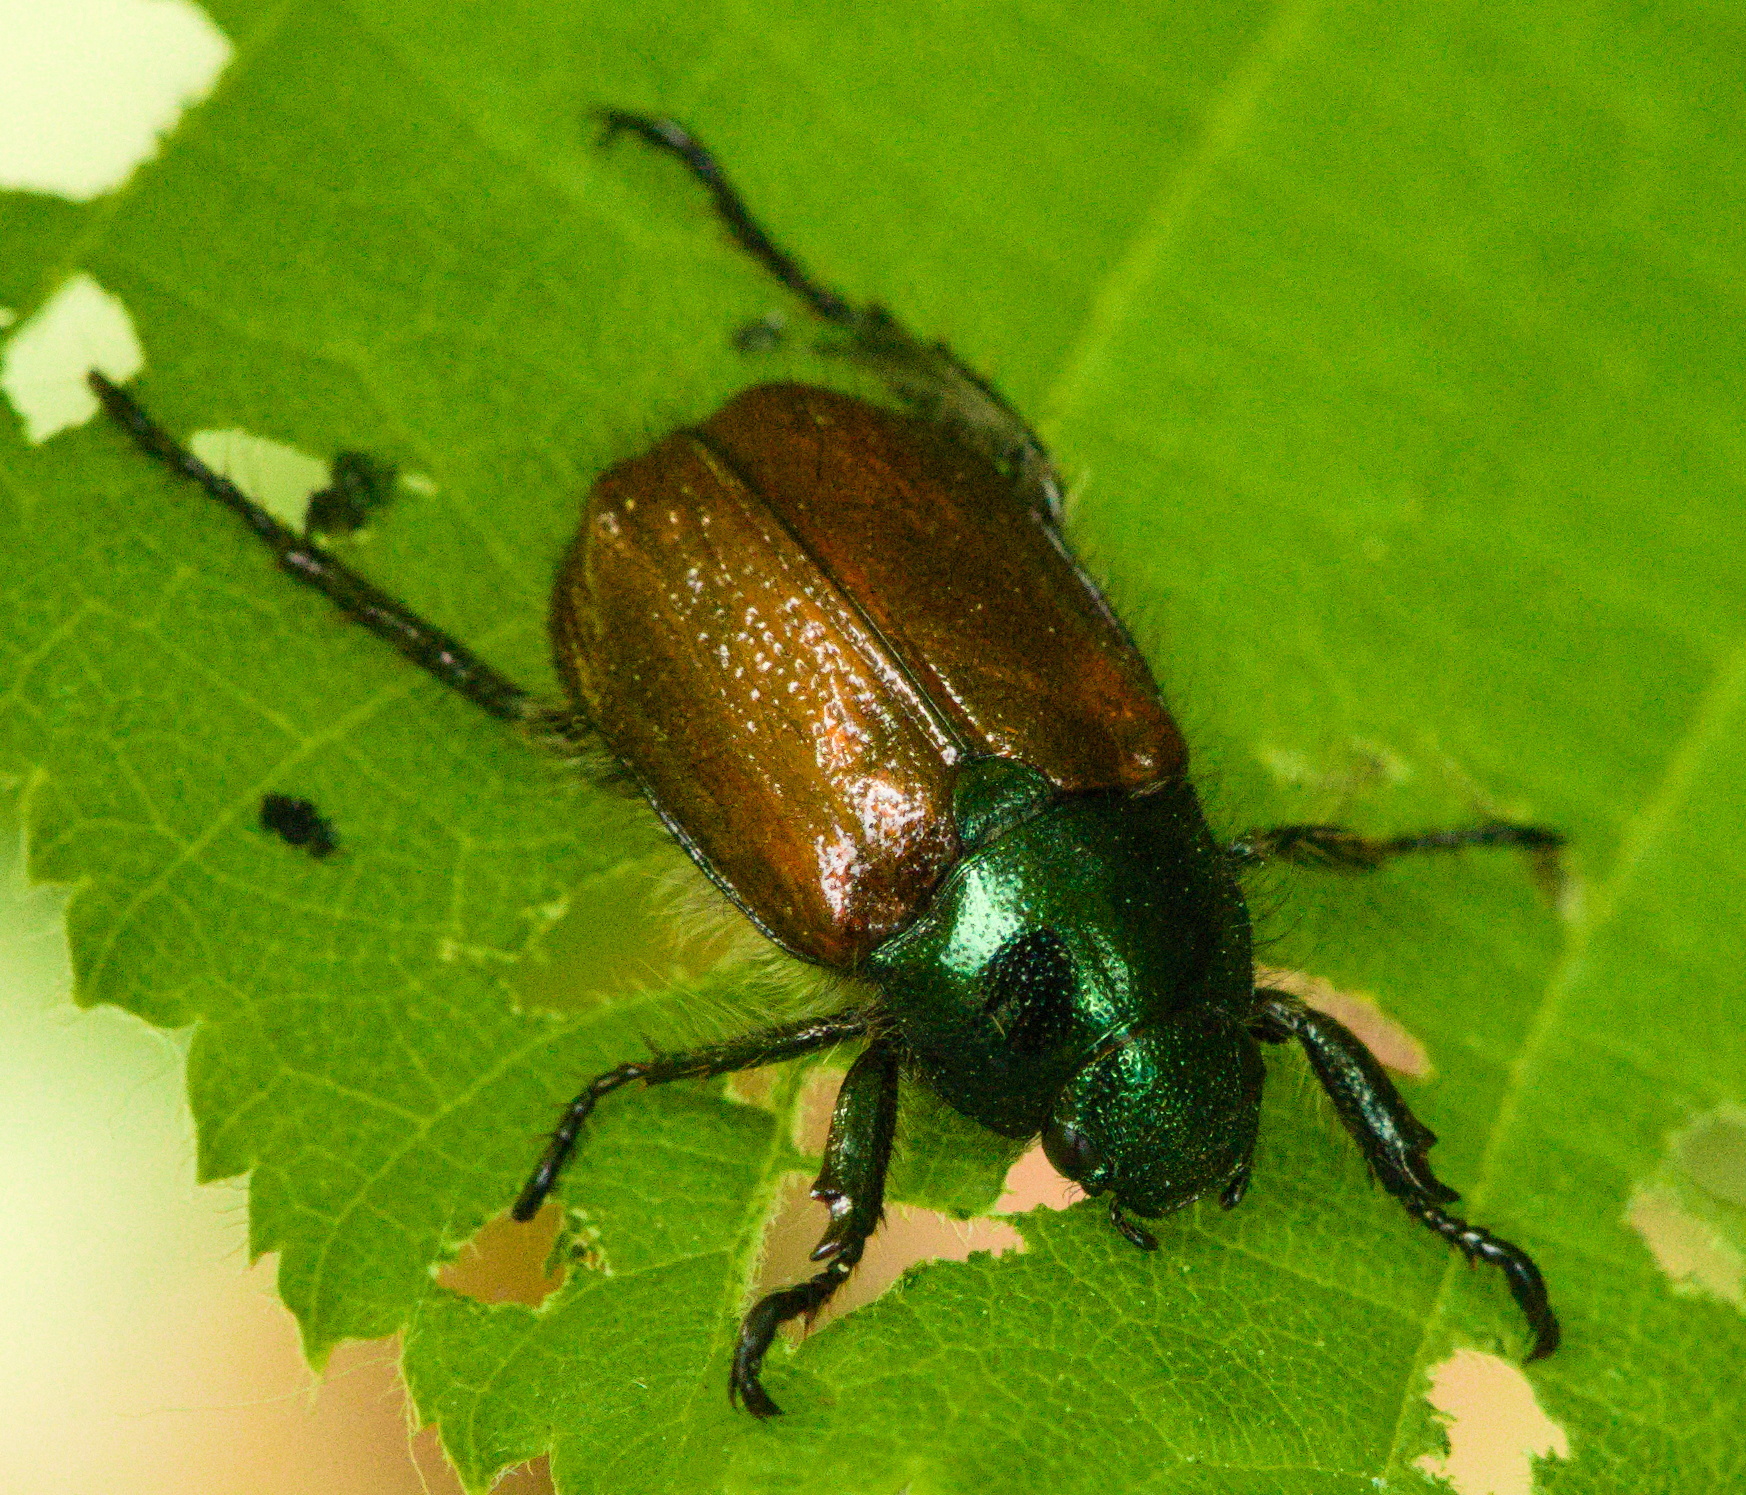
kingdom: Animalia
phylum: Arthropoda
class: Insecta
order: Coleoptera
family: Scarabaeidae
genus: Phyllopertha
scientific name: Phyllopertha horticola
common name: Garden chafer
